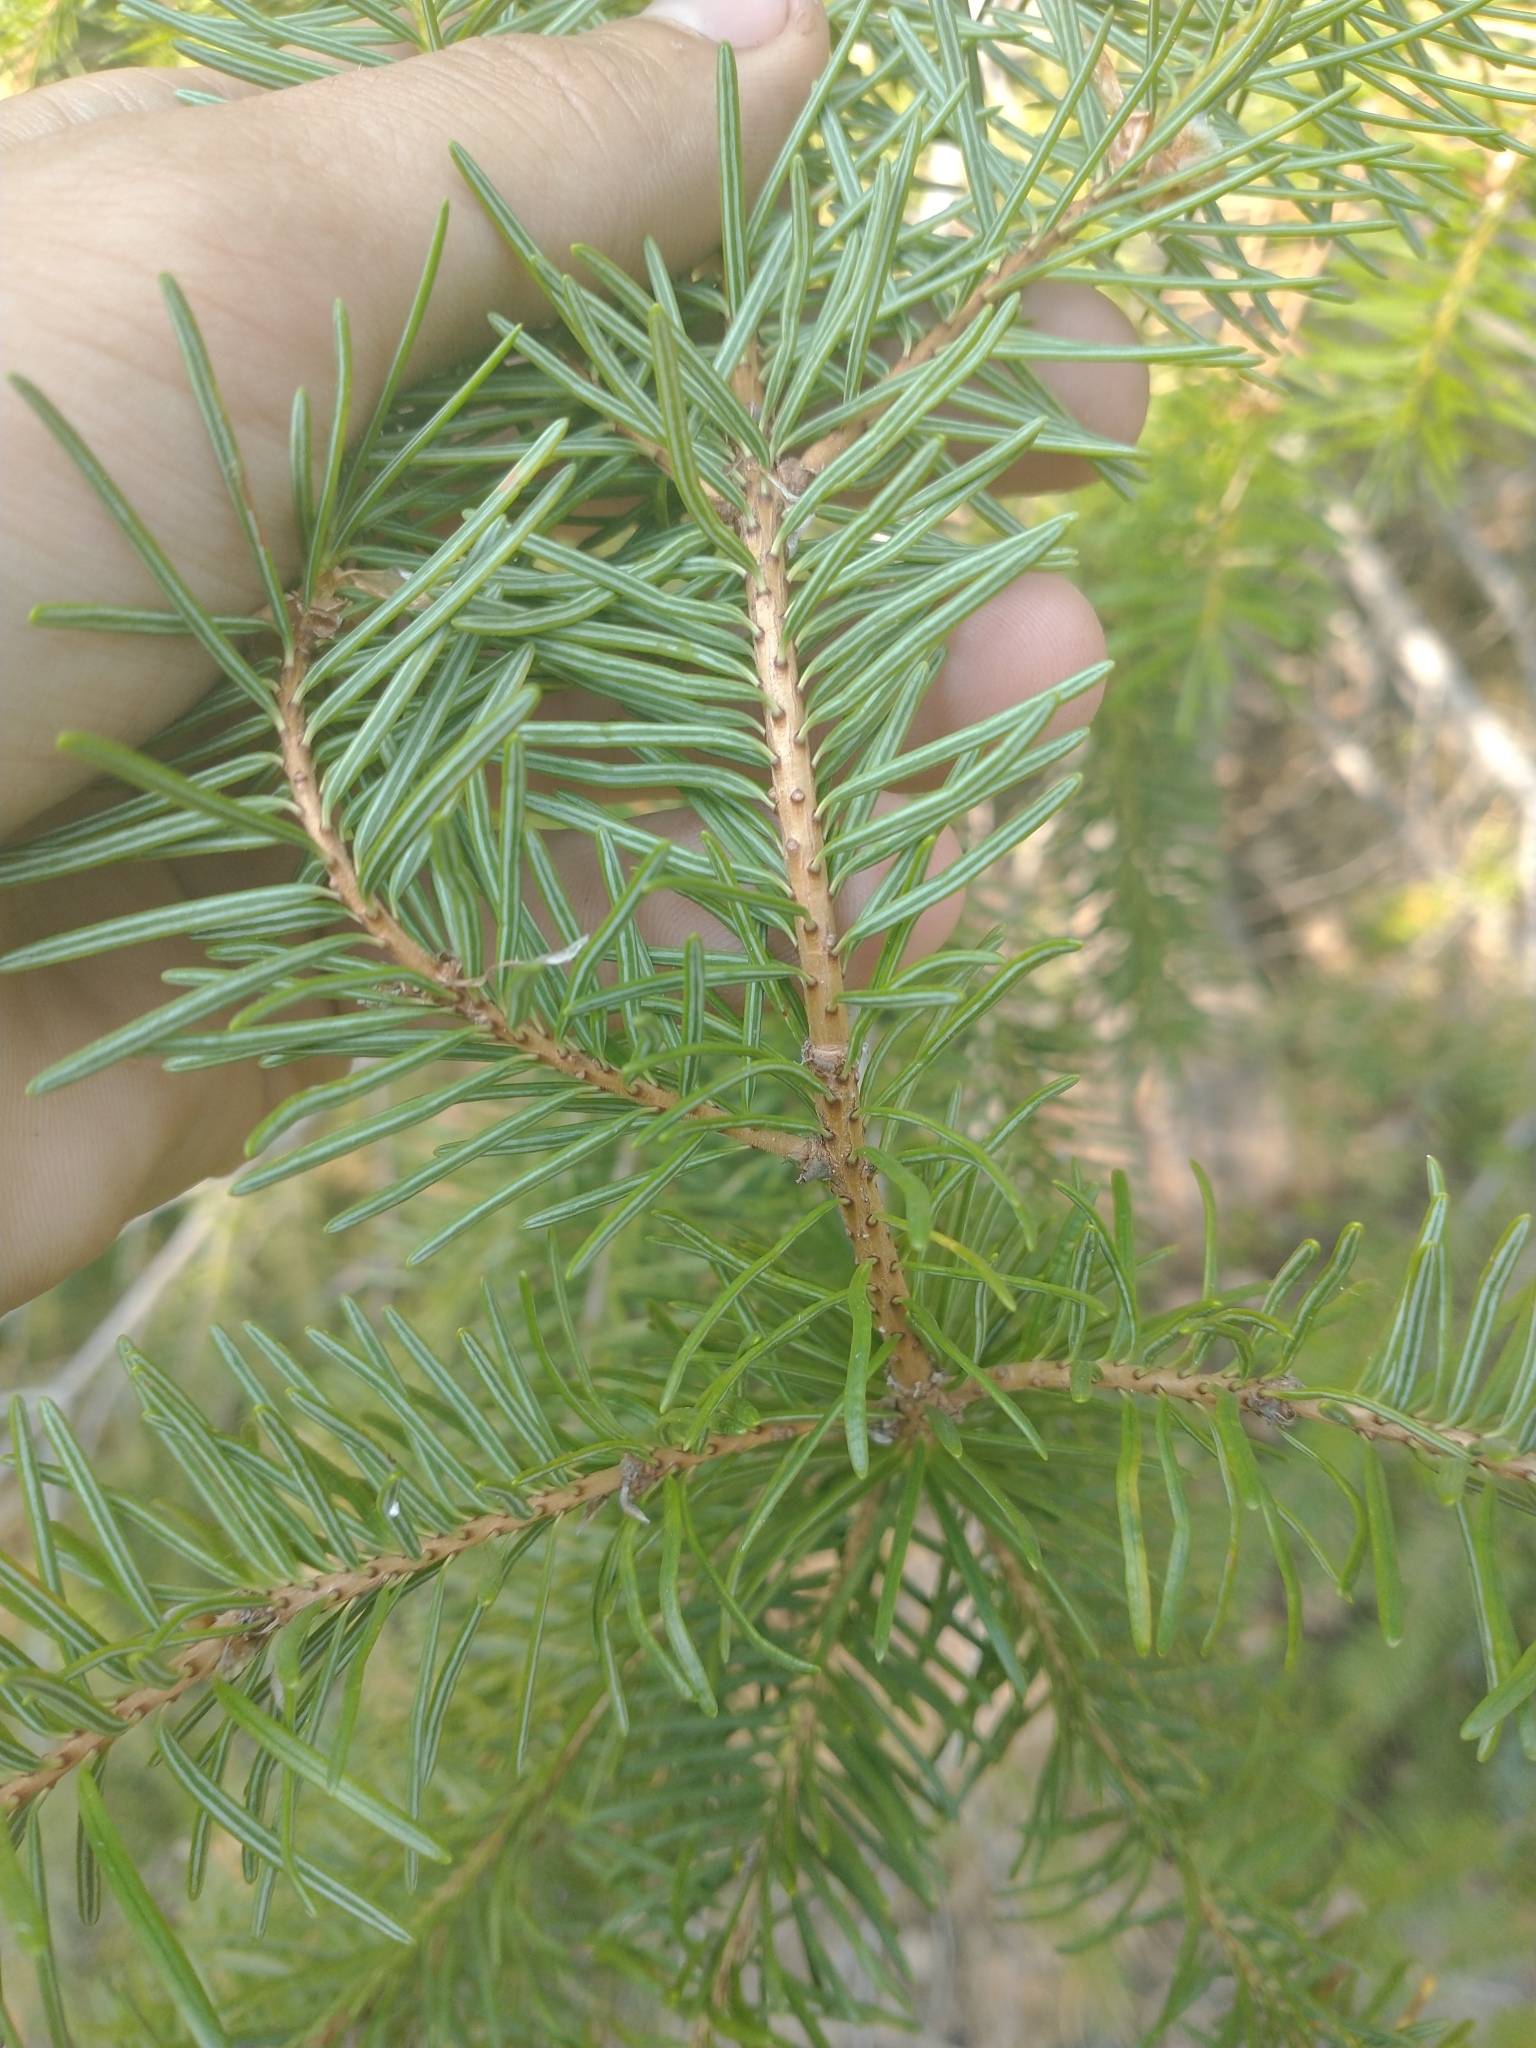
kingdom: Plantae
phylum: Tracheophyta
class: Pinopsida
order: Pinales
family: Pinaceae
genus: Pseudotsuga
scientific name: Pseudotsuga menziesii
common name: Douglas fir
